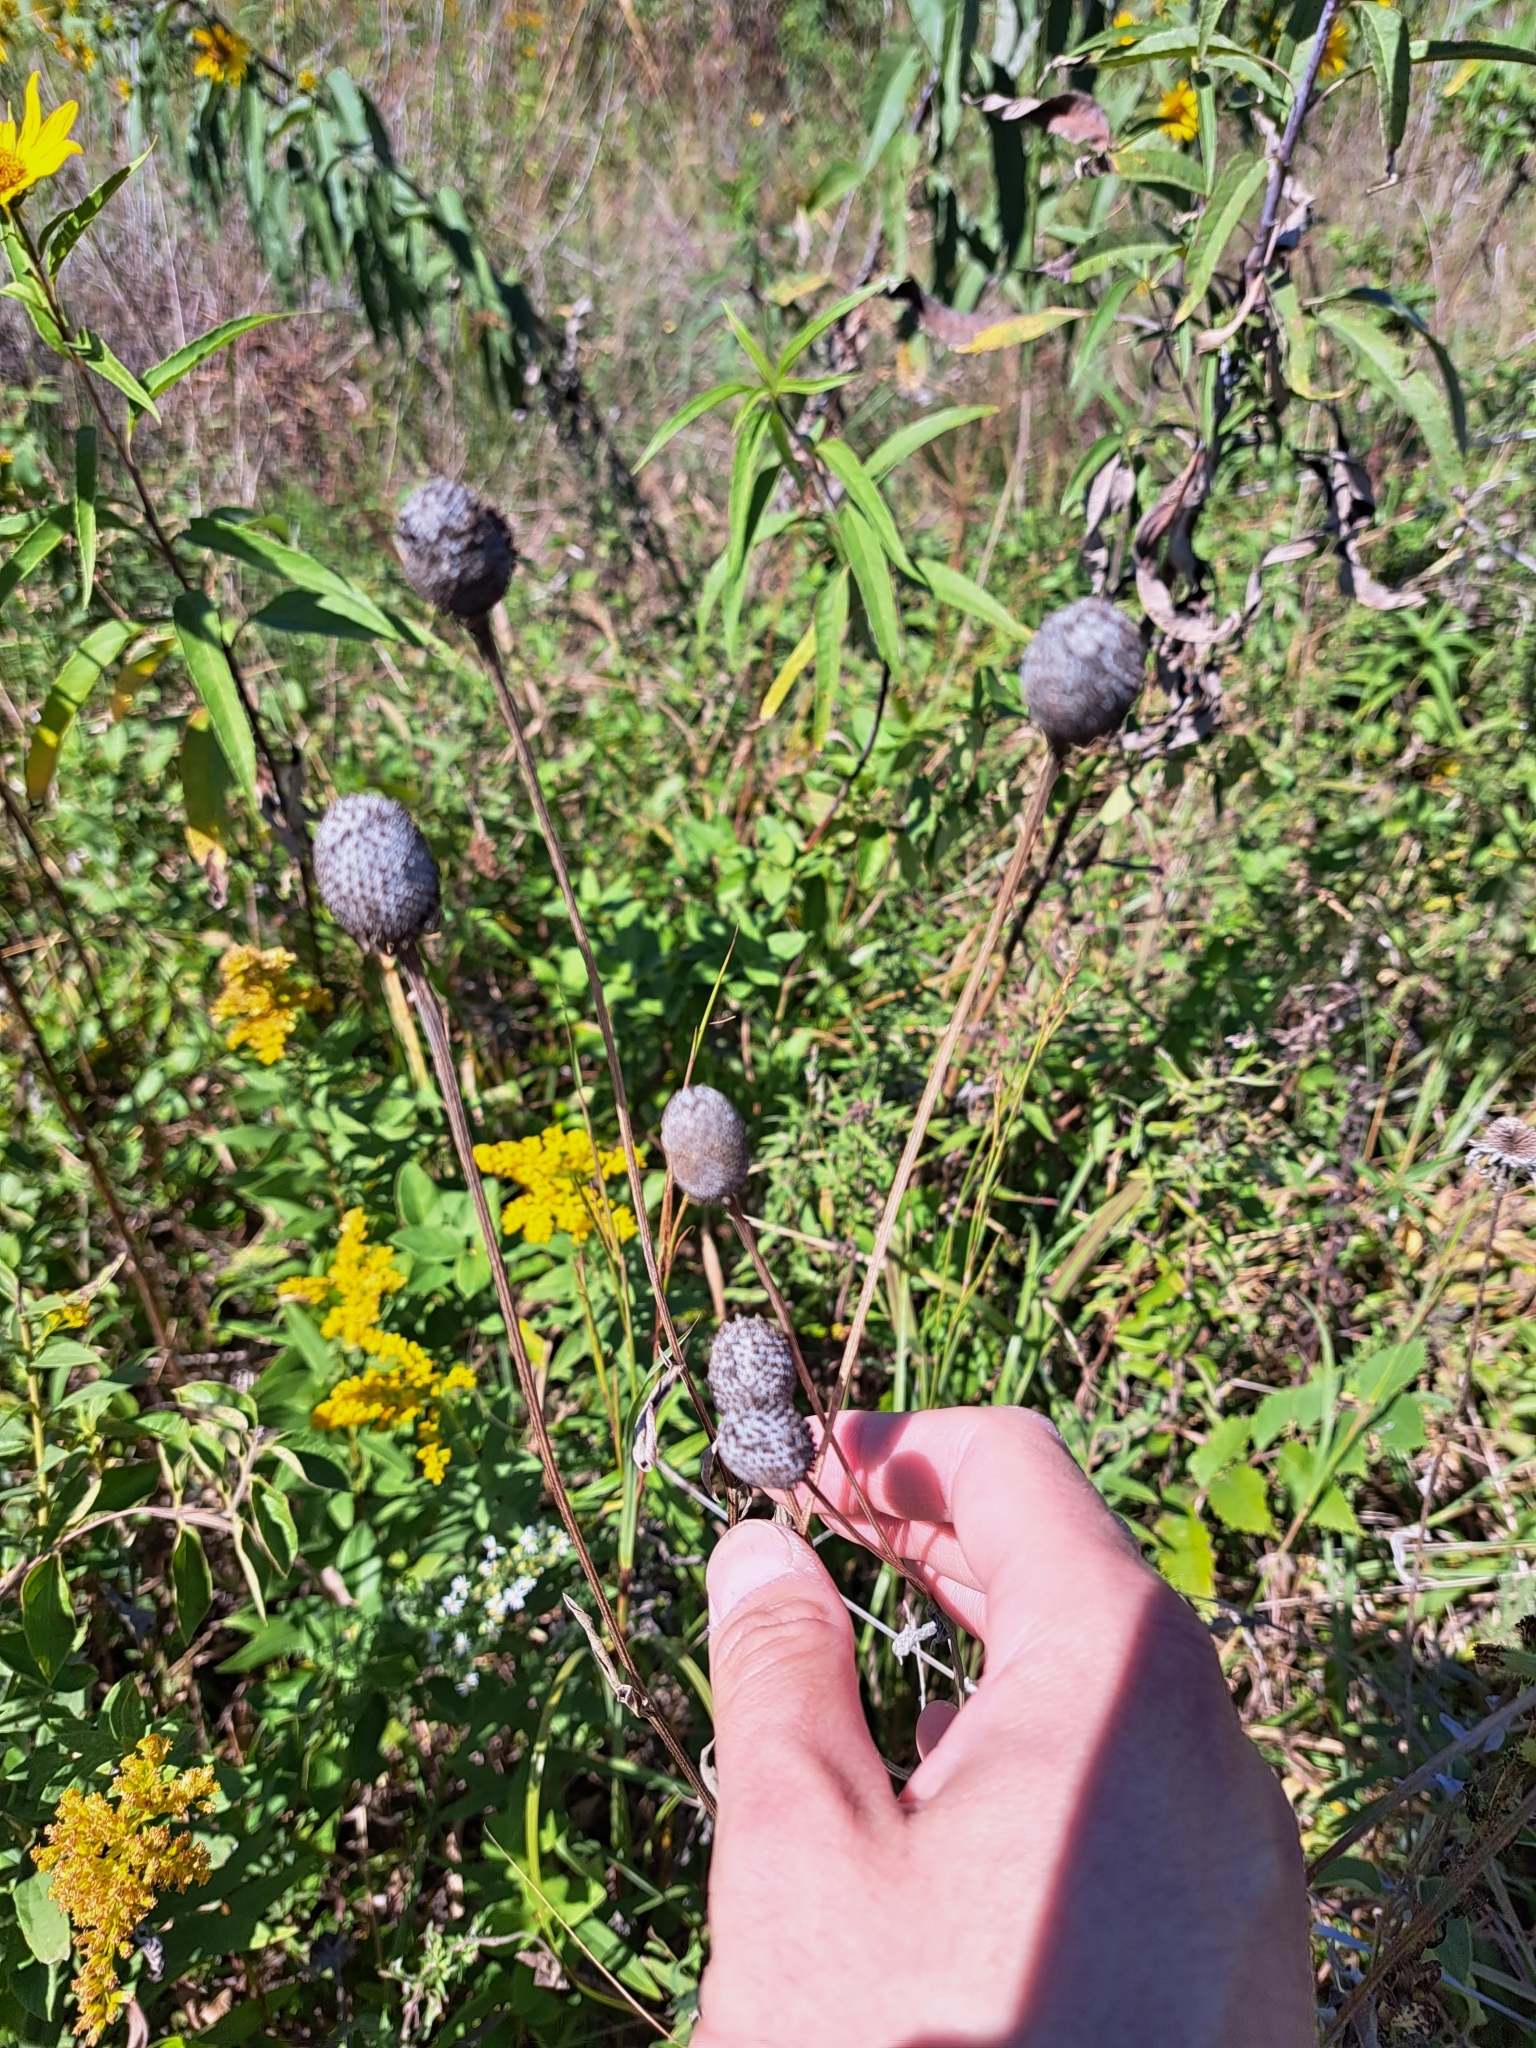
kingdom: Plantae
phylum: Tracheophyta
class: Magnoliopsida
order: Asterales
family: Asteraceae
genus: Ratibida
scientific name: Ratibida pinnata
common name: Drooping prairie-coneflower
